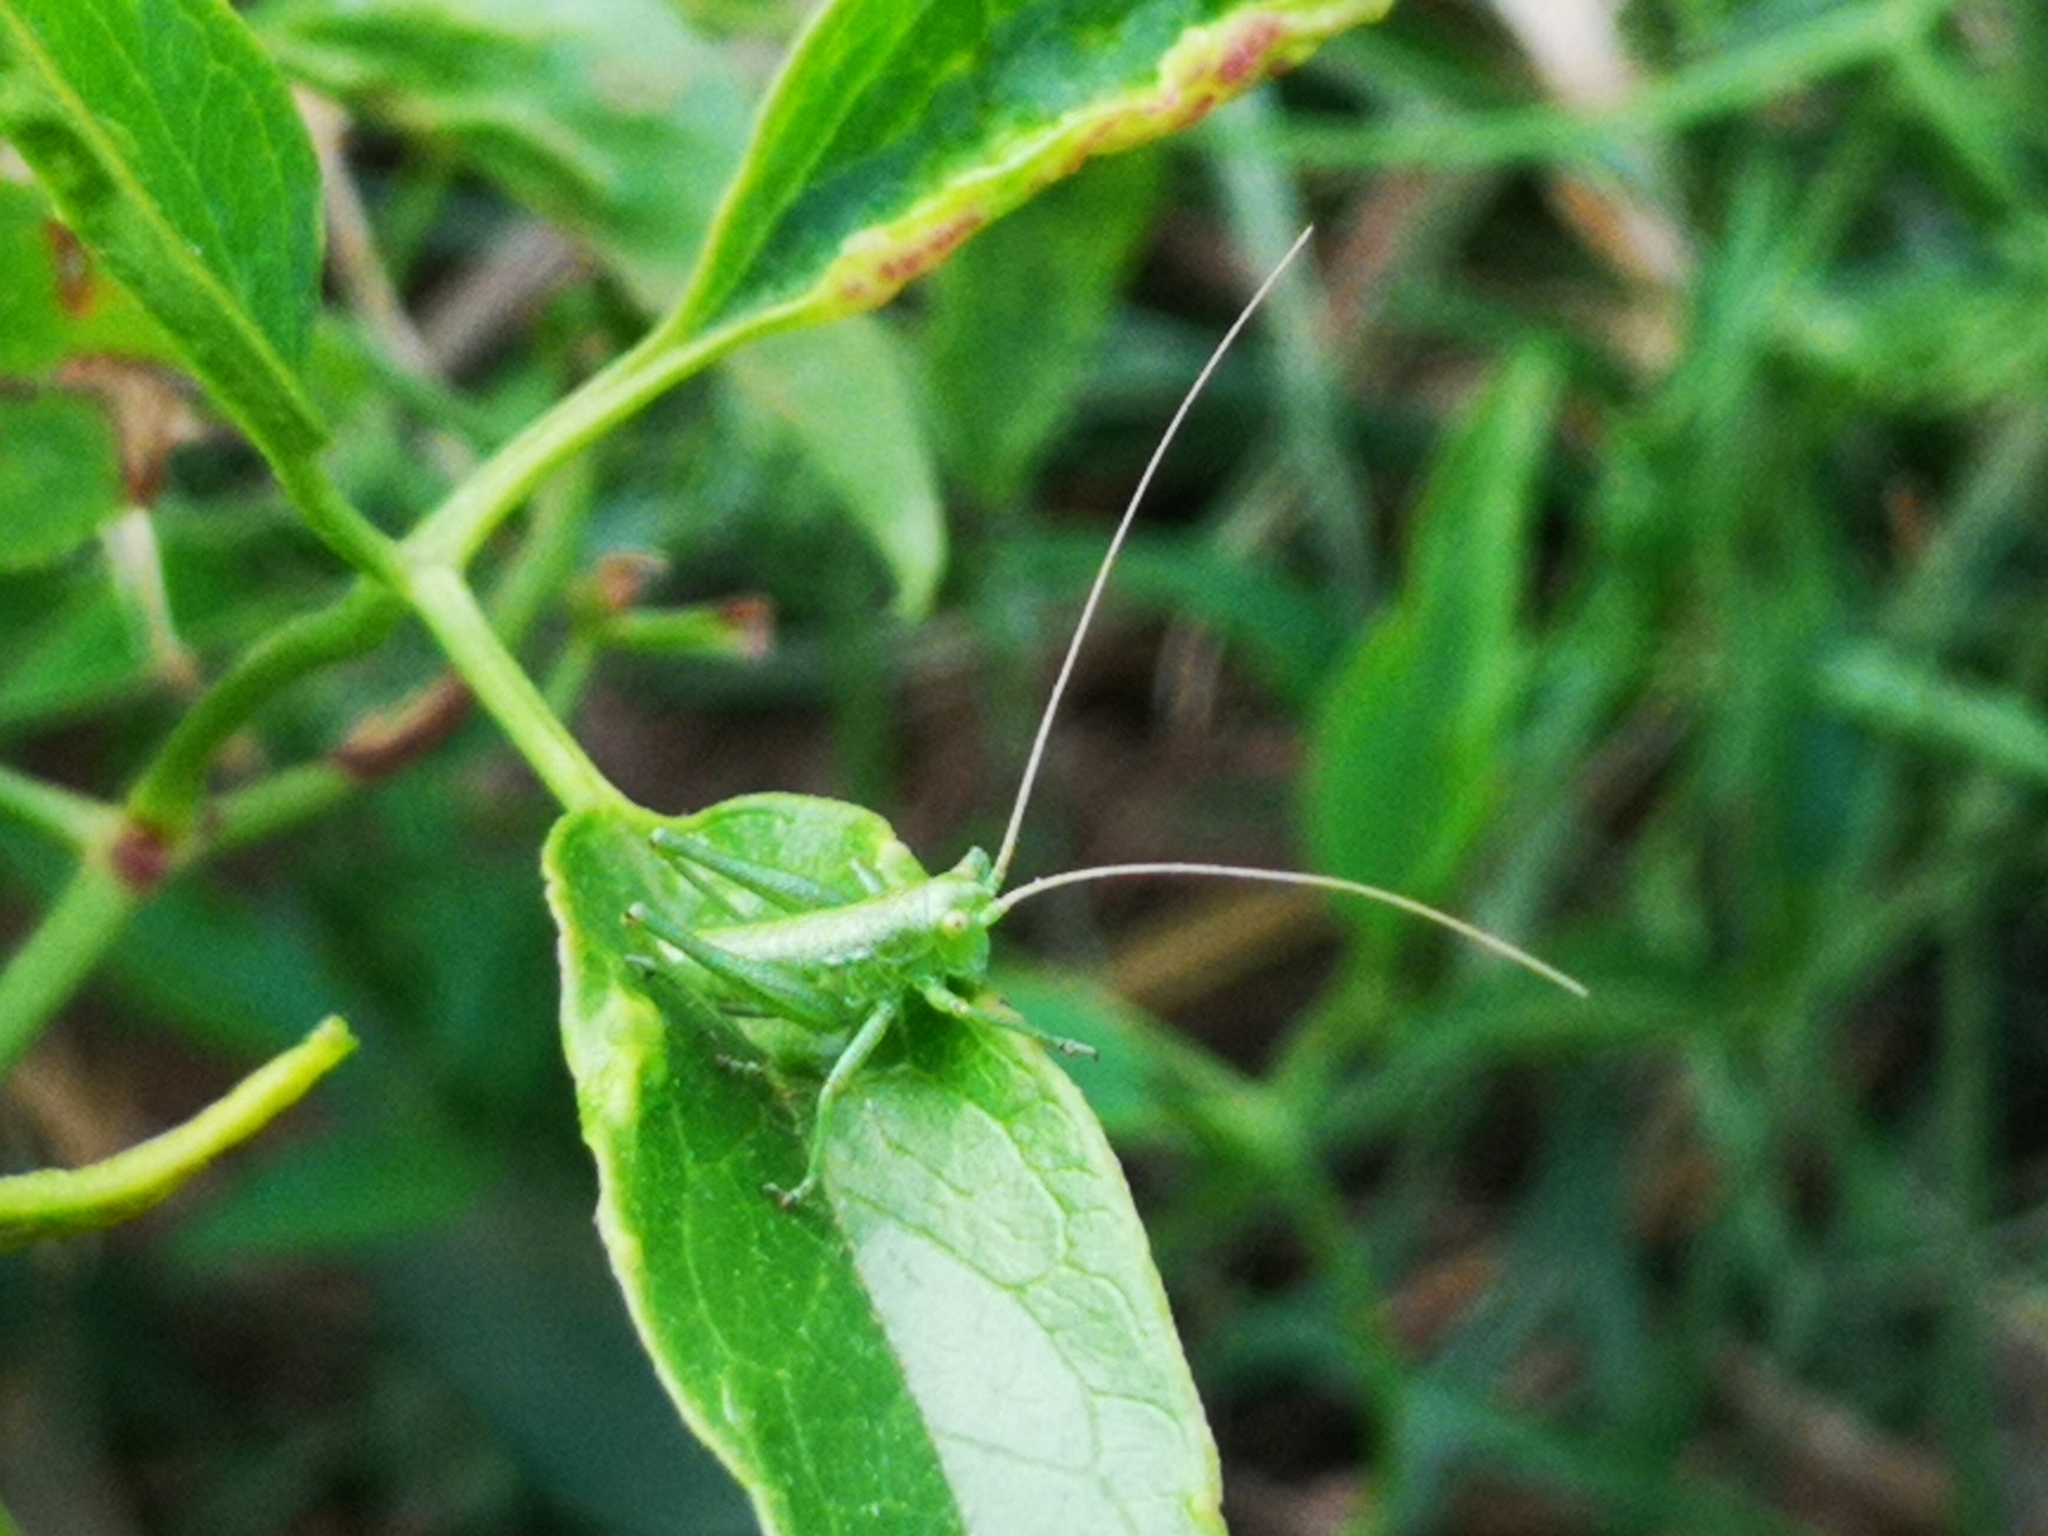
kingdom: Animalia
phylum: Arthropoda
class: Insecta
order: Orthoptera
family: Tettigoniidae
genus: Tettigonia
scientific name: Tettigonia viridissima
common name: Great green bush-cricket
